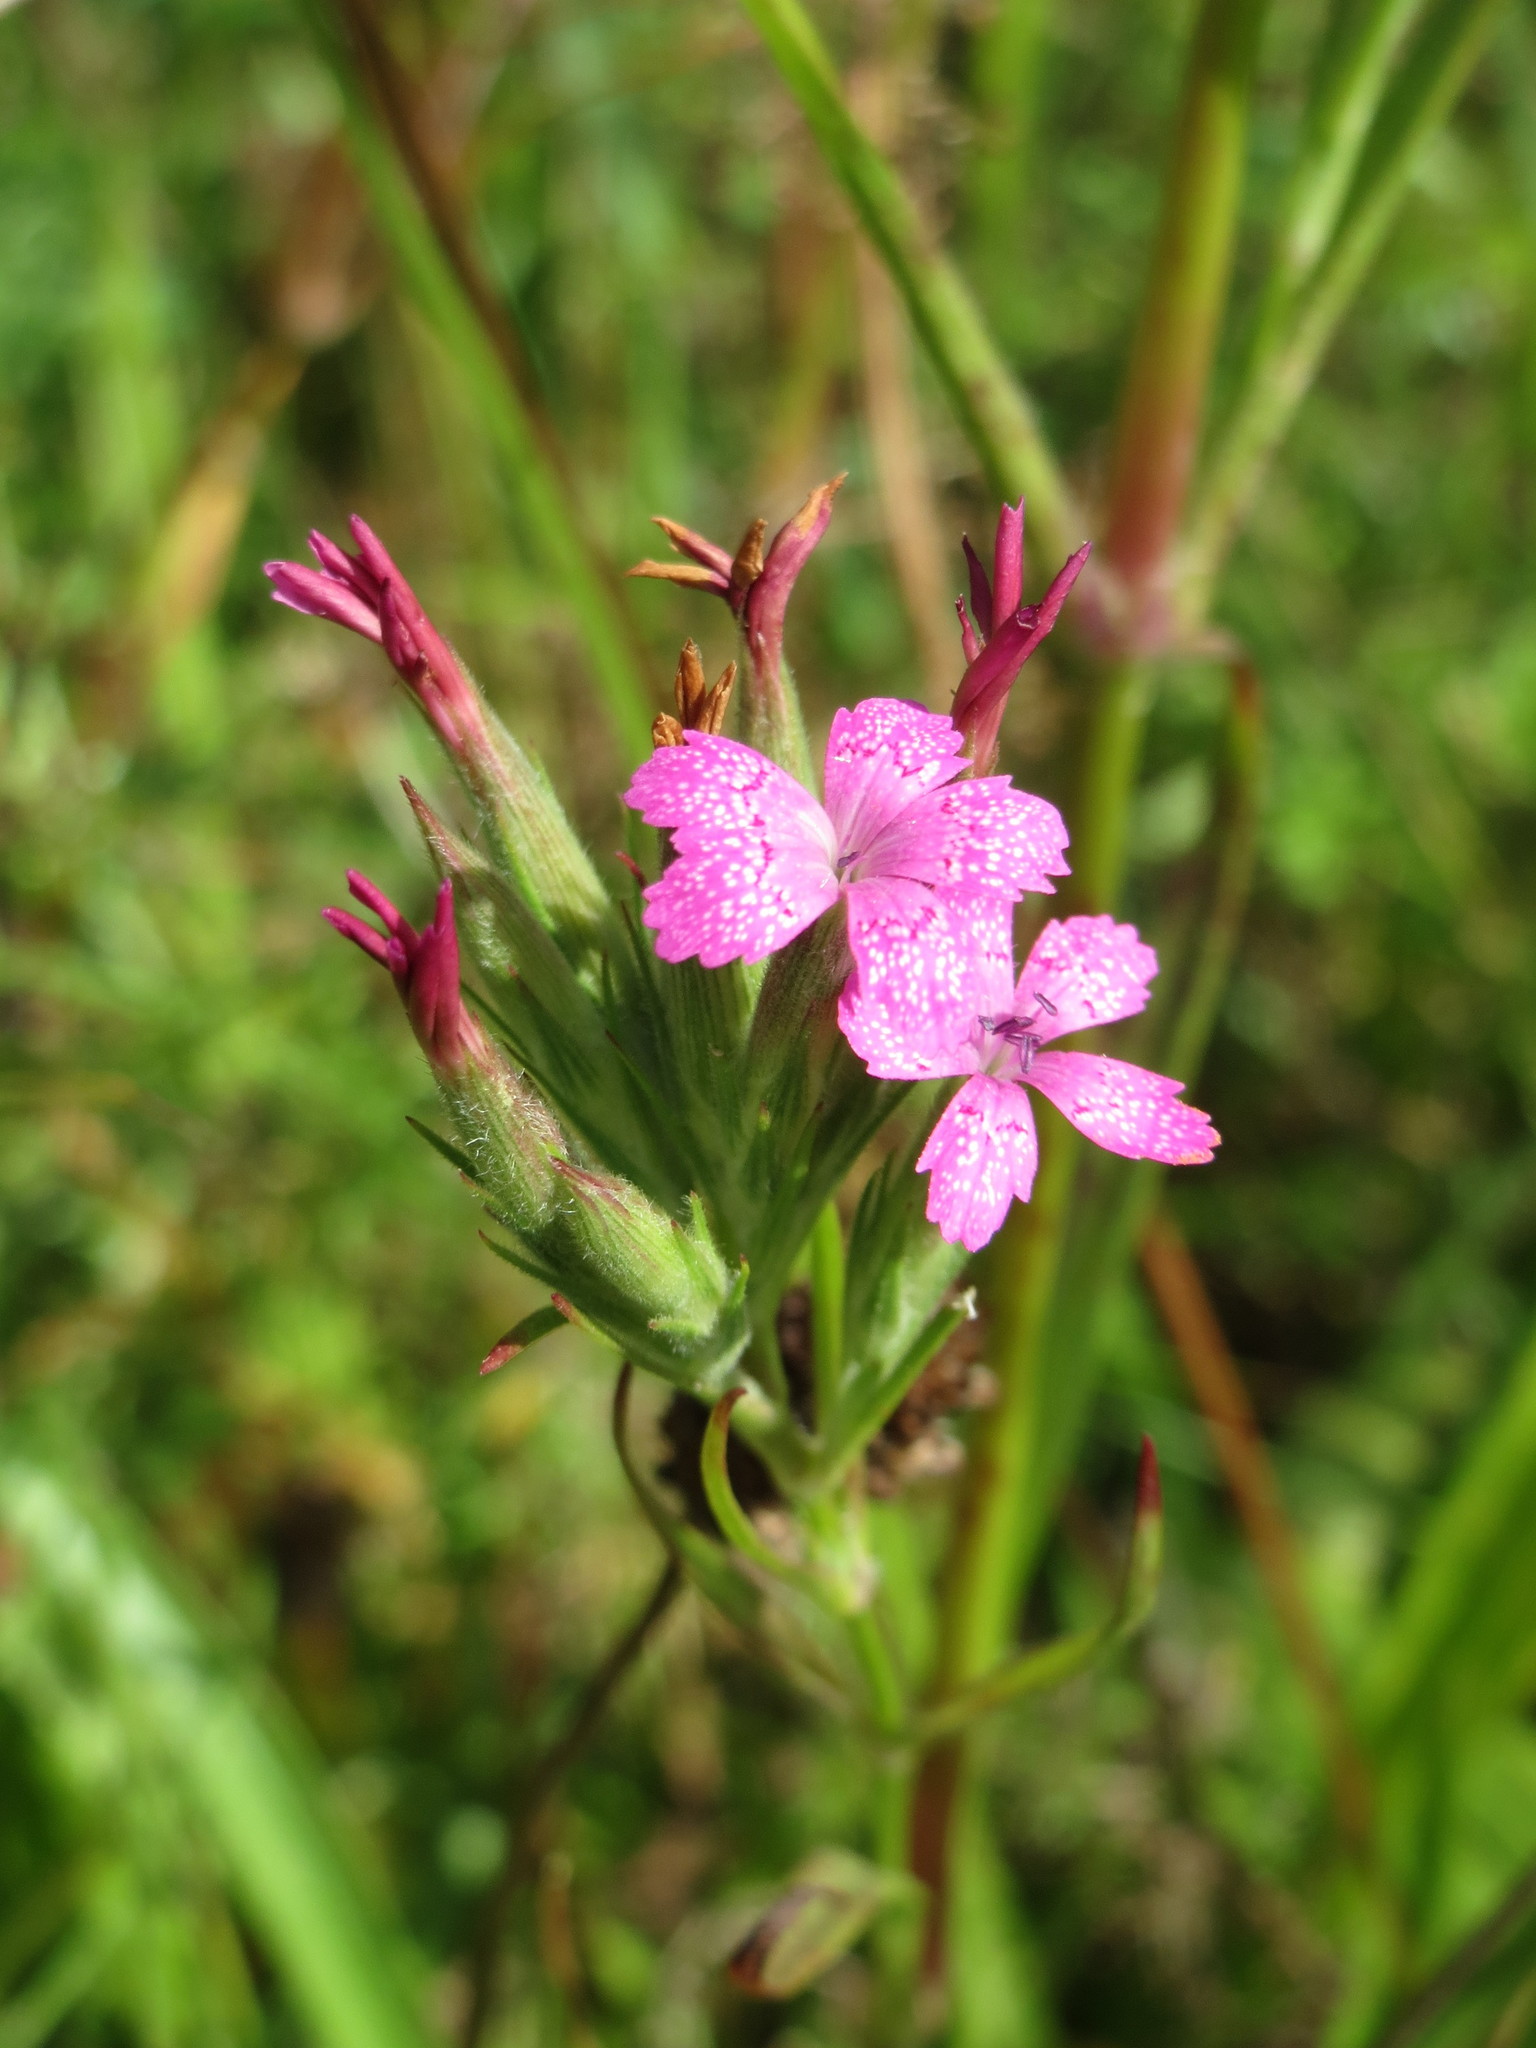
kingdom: Plantae
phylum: Tracheophyta
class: Magnoliopsida
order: Caryophyllales
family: Caryophyllaceae
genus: Dianthus
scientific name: Dianthus armeria
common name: Deptford pink
